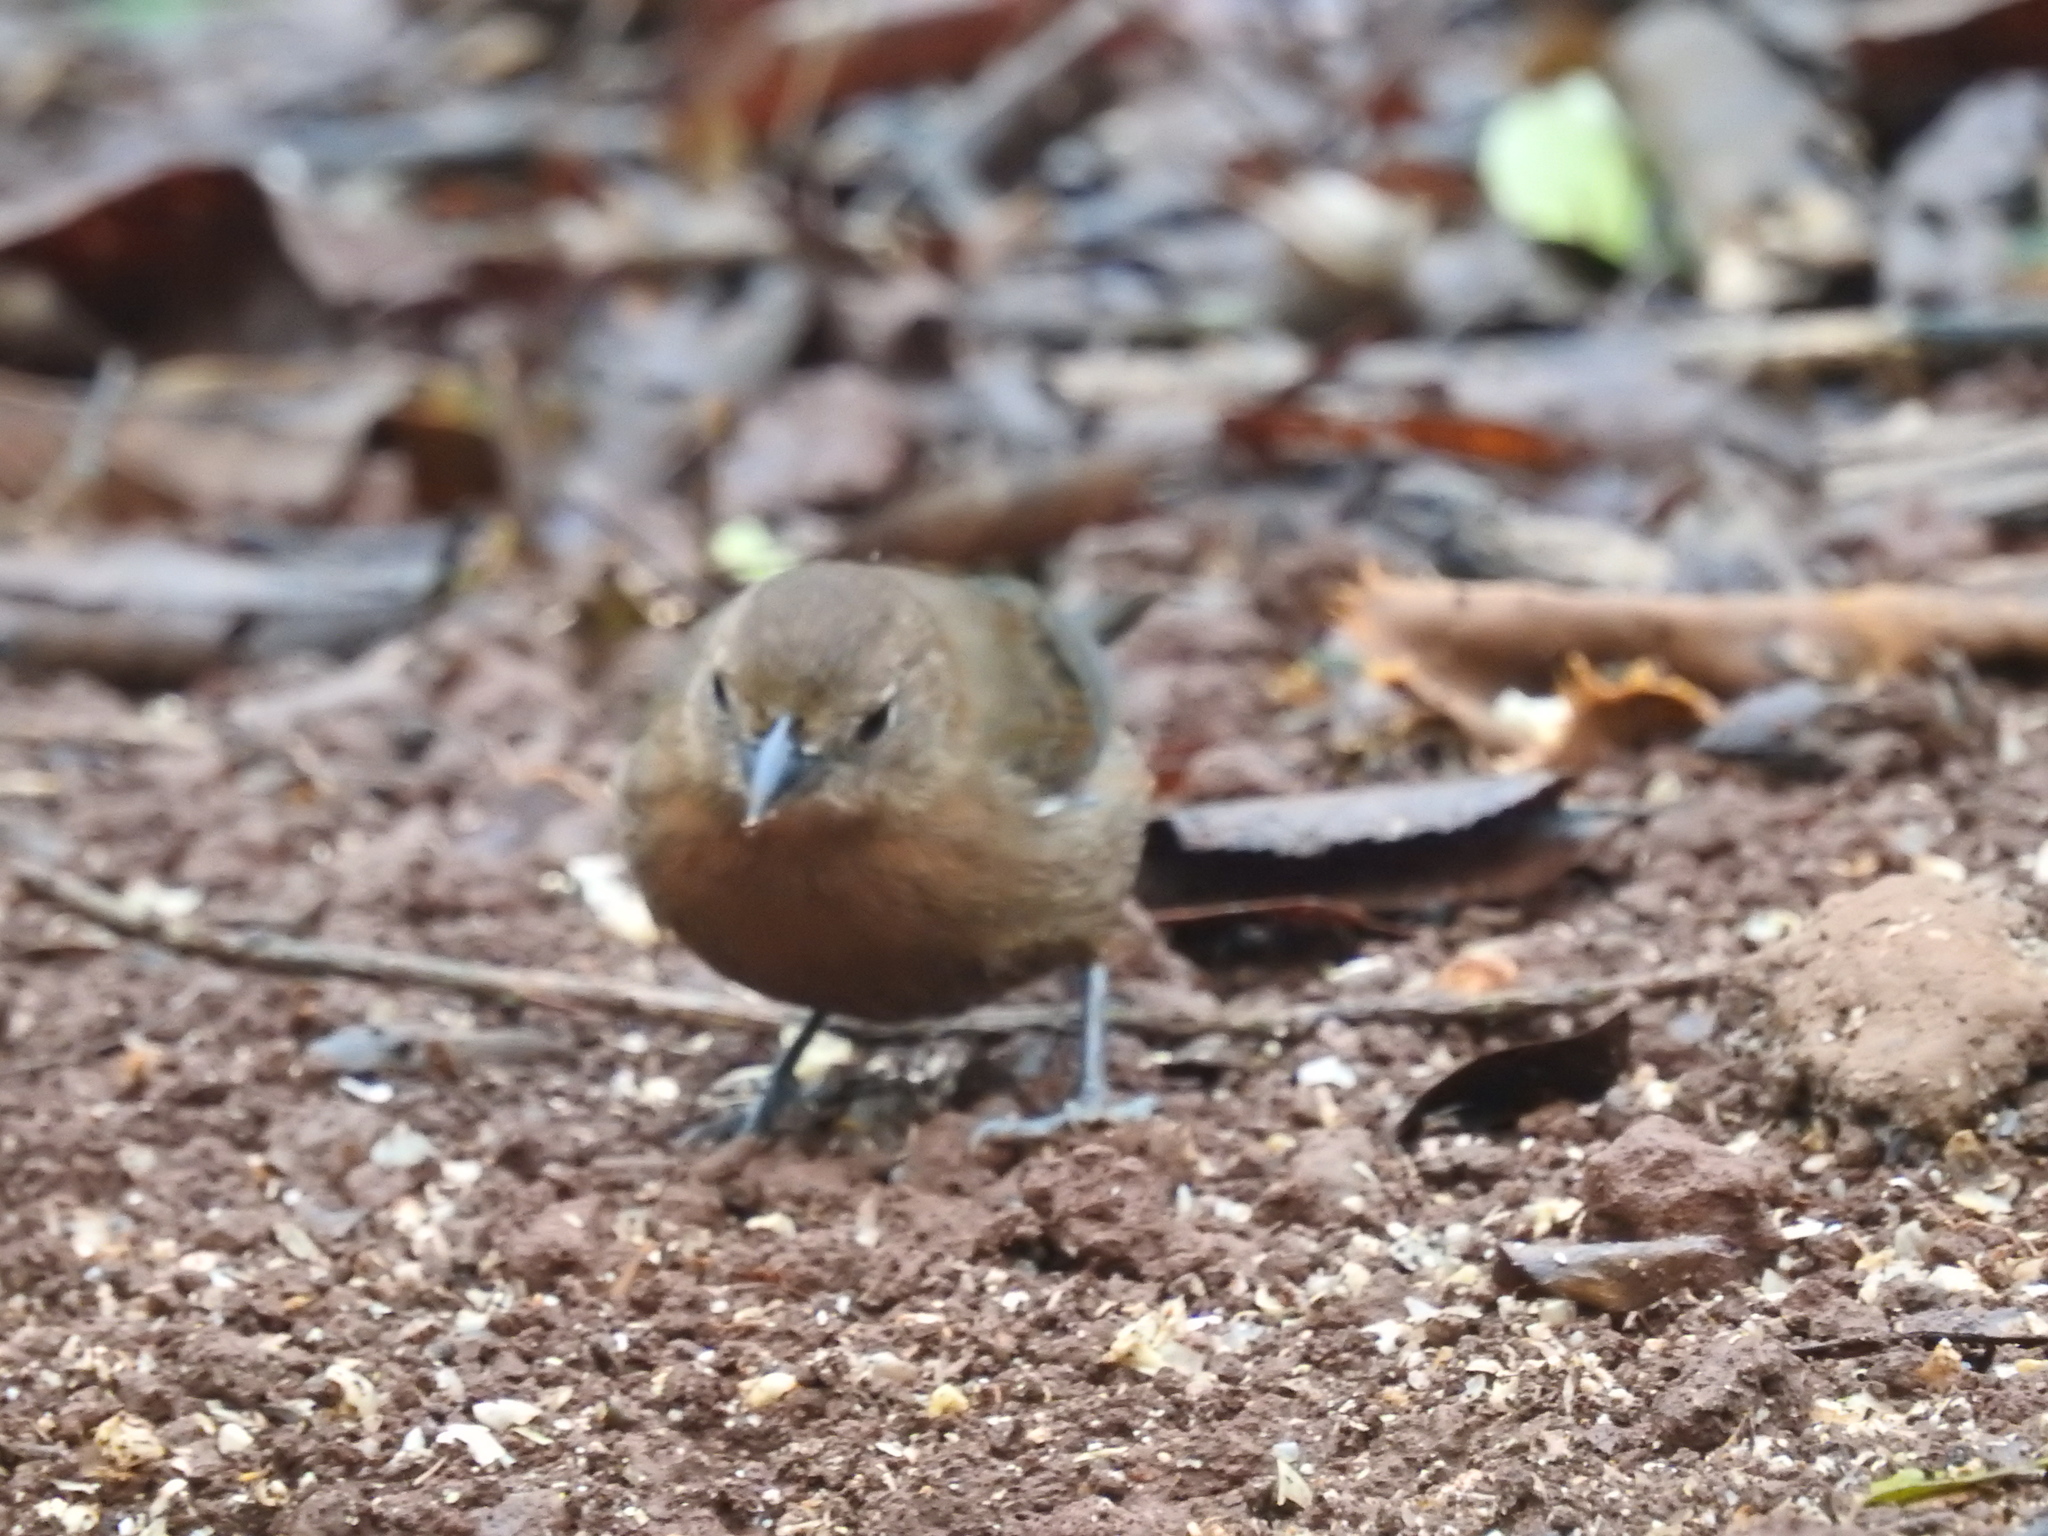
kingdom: Animalia
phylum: Chordata
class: Aves
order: Passeriformes
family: Thraupidae
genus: Coryphospingus
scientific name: Coryphospingus cucullatus
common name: Red pileated finch
